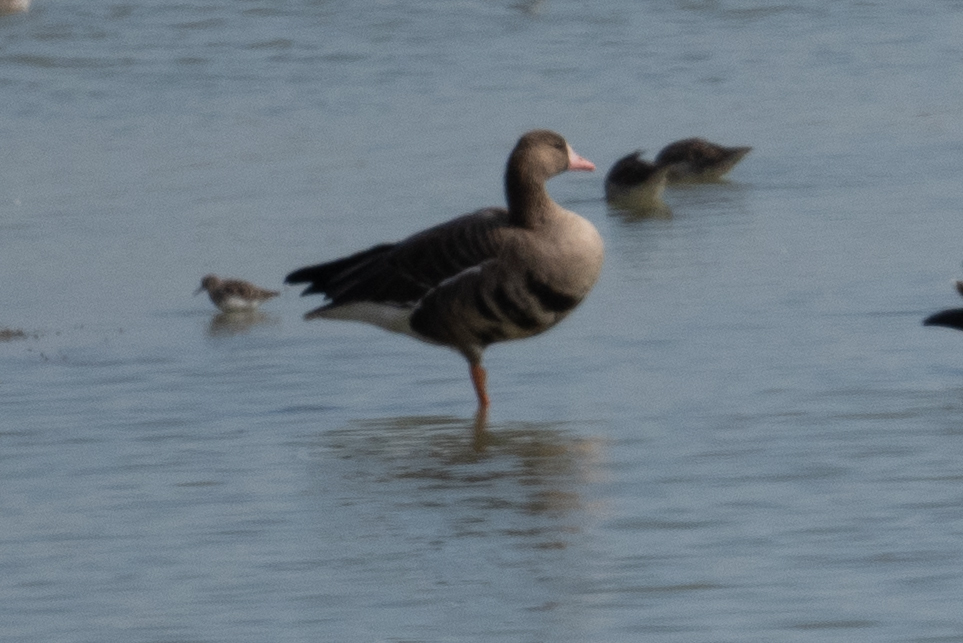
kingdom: Animalia
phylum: Chordata
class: Aves
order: Anseriformes
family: Anatidae
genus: Anser
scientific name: Anser albifrons
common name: Greater white-fronted goose
